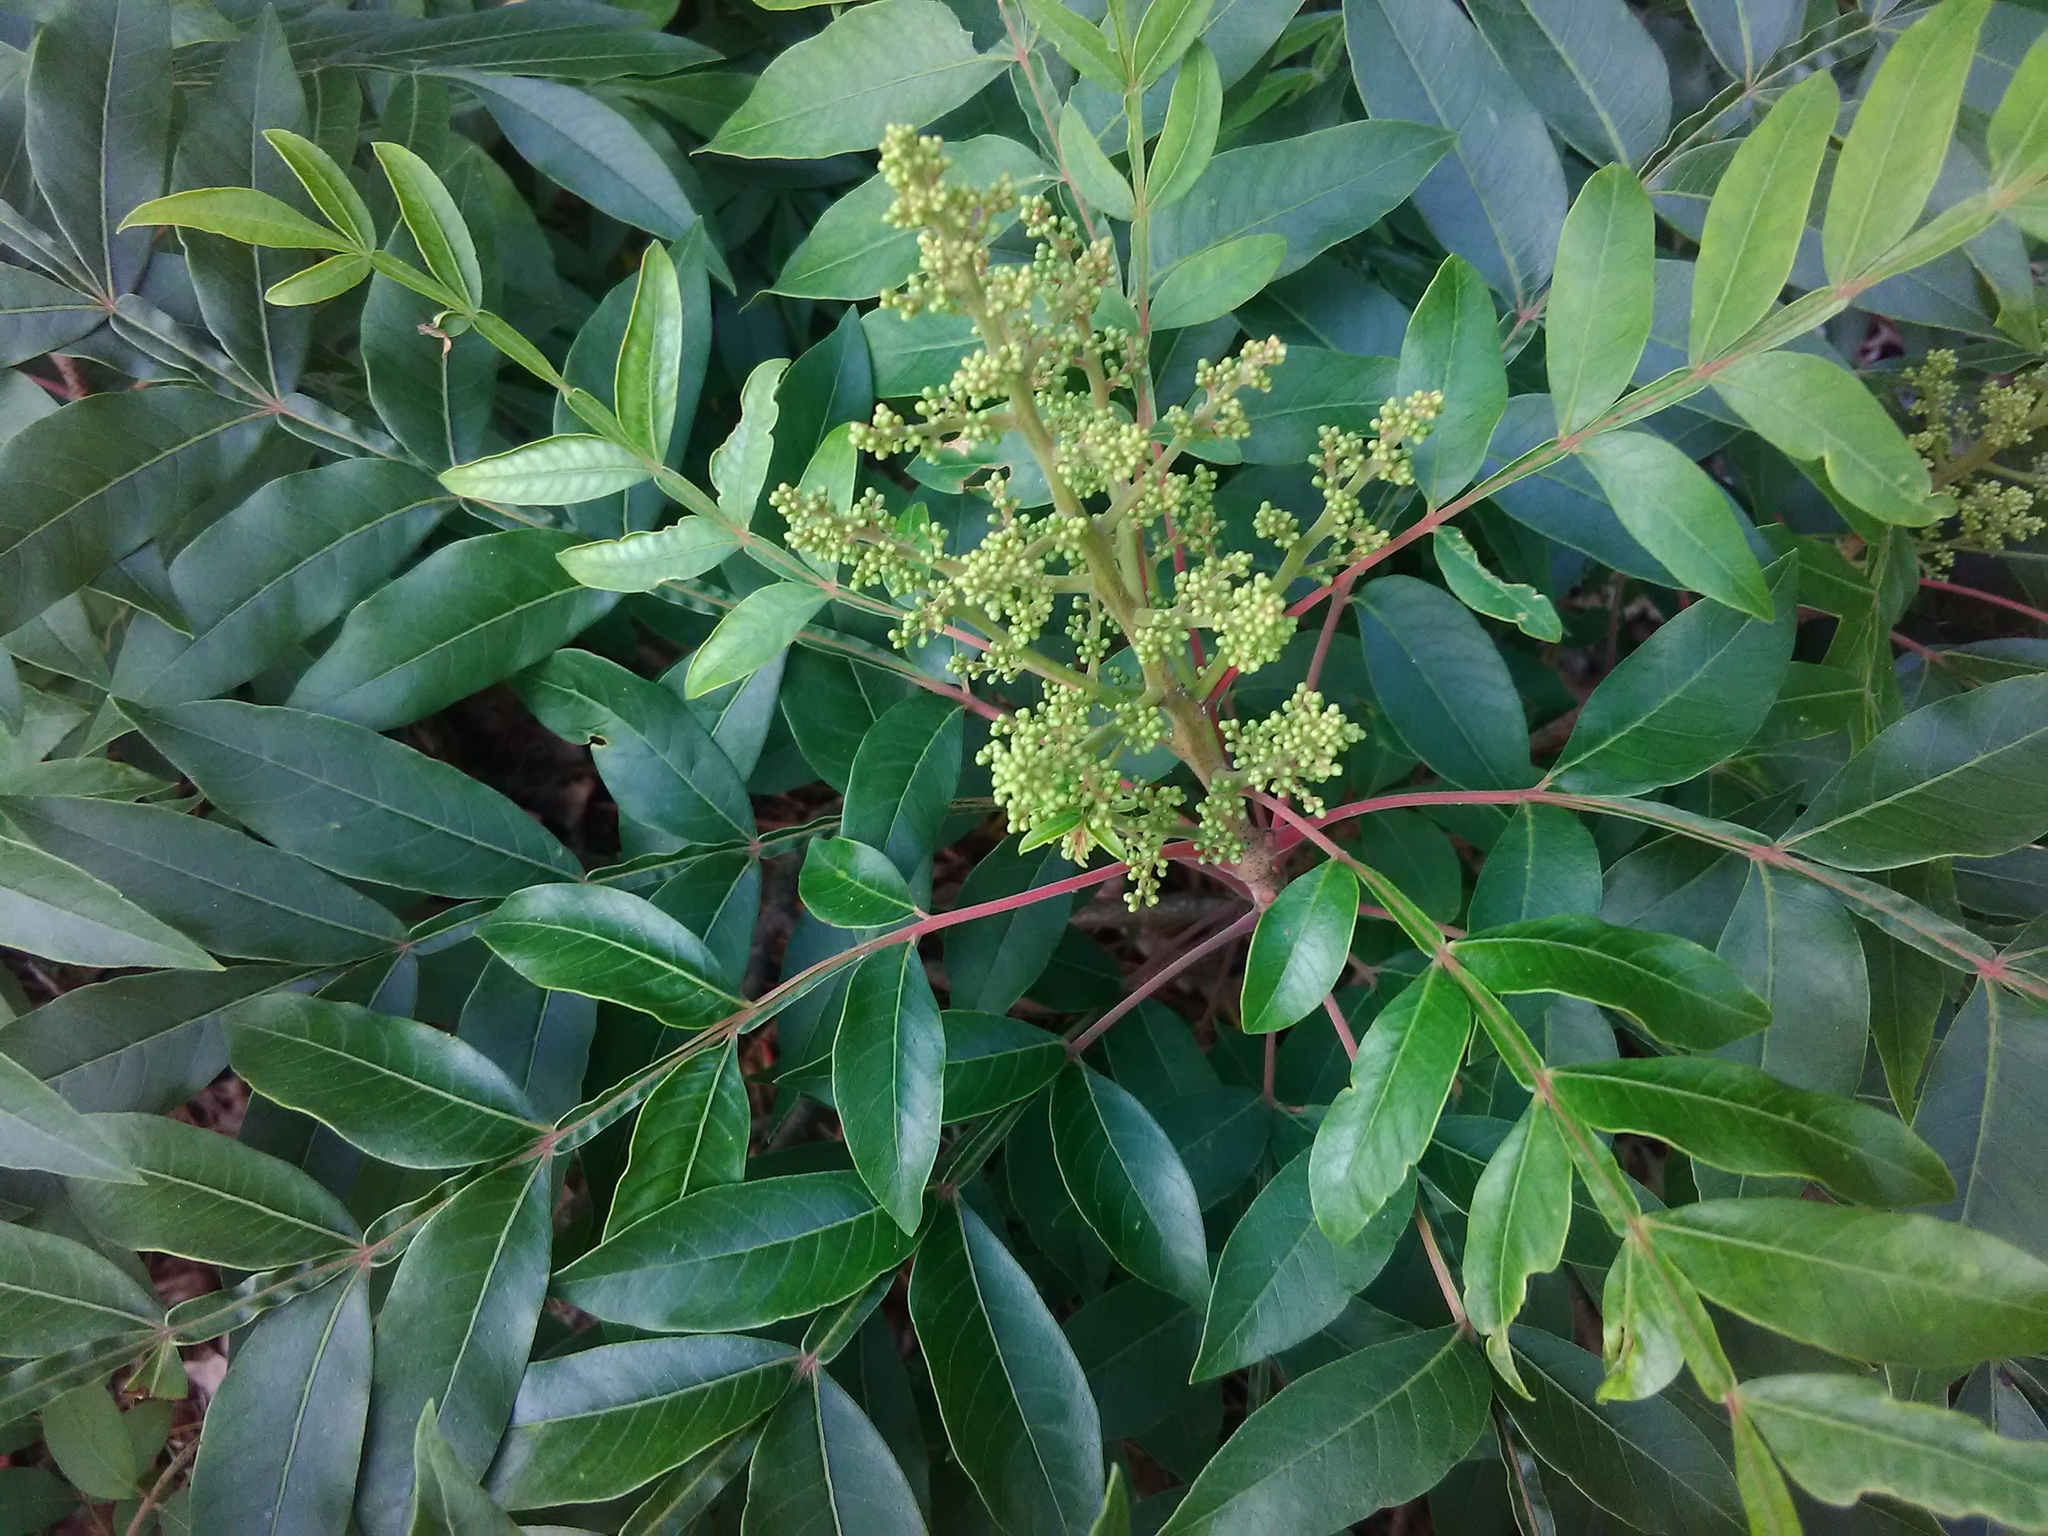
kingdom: Plantae
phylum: Tracheophyta
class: Magnoliopsida
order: Sapindales
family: Anacardiaceae
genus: Rhus
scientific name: Rhus copallina
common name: Shining sumac
